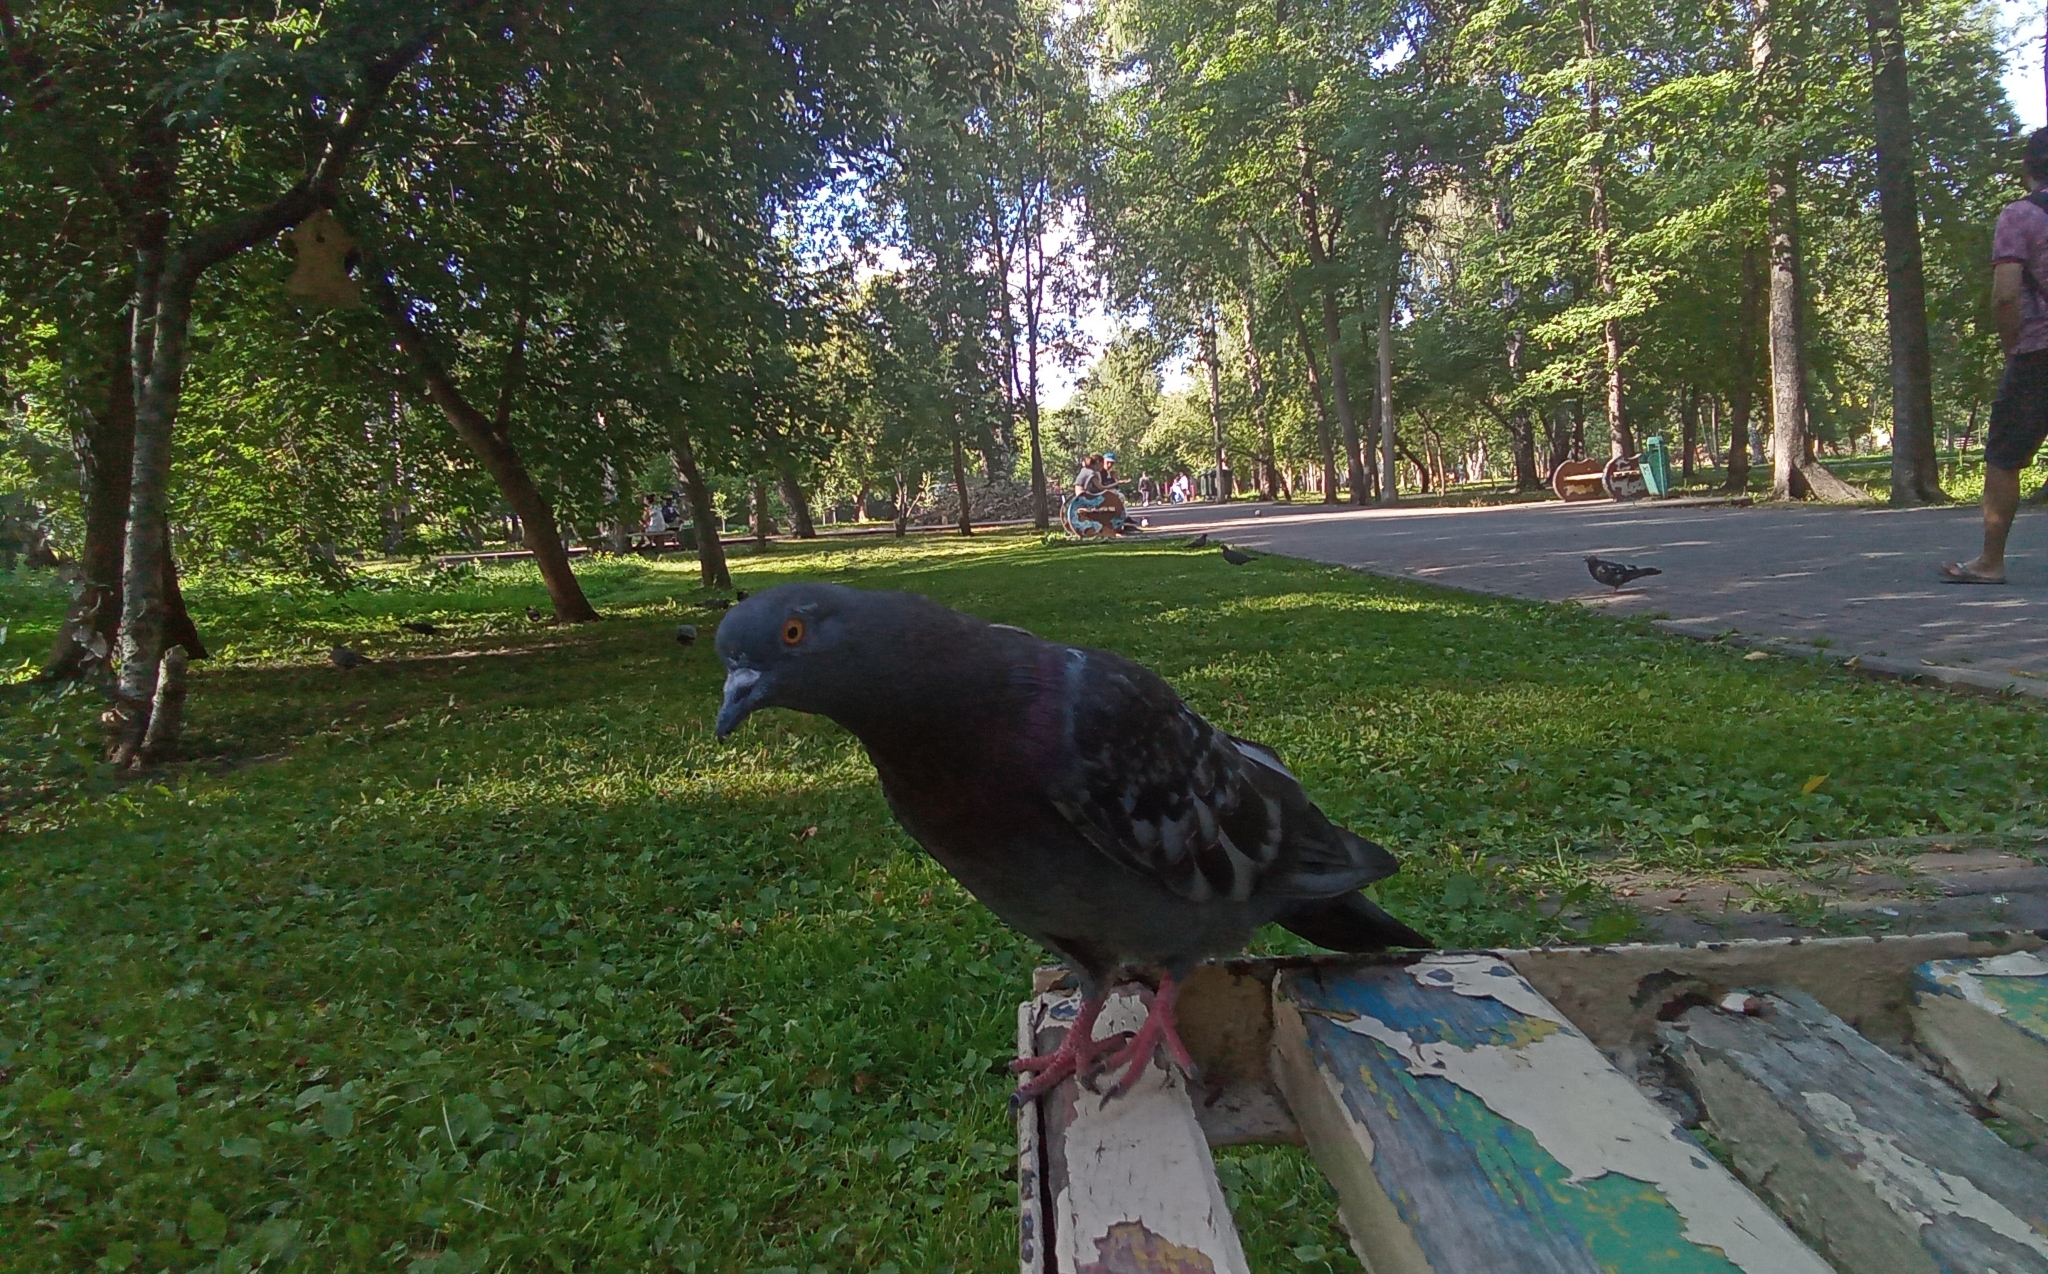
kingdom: Animalia
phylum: Chordata
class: Aves
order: Columbiformes
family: Columbidae
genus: Columba
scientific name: Columba livia
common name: Rock pigeon
